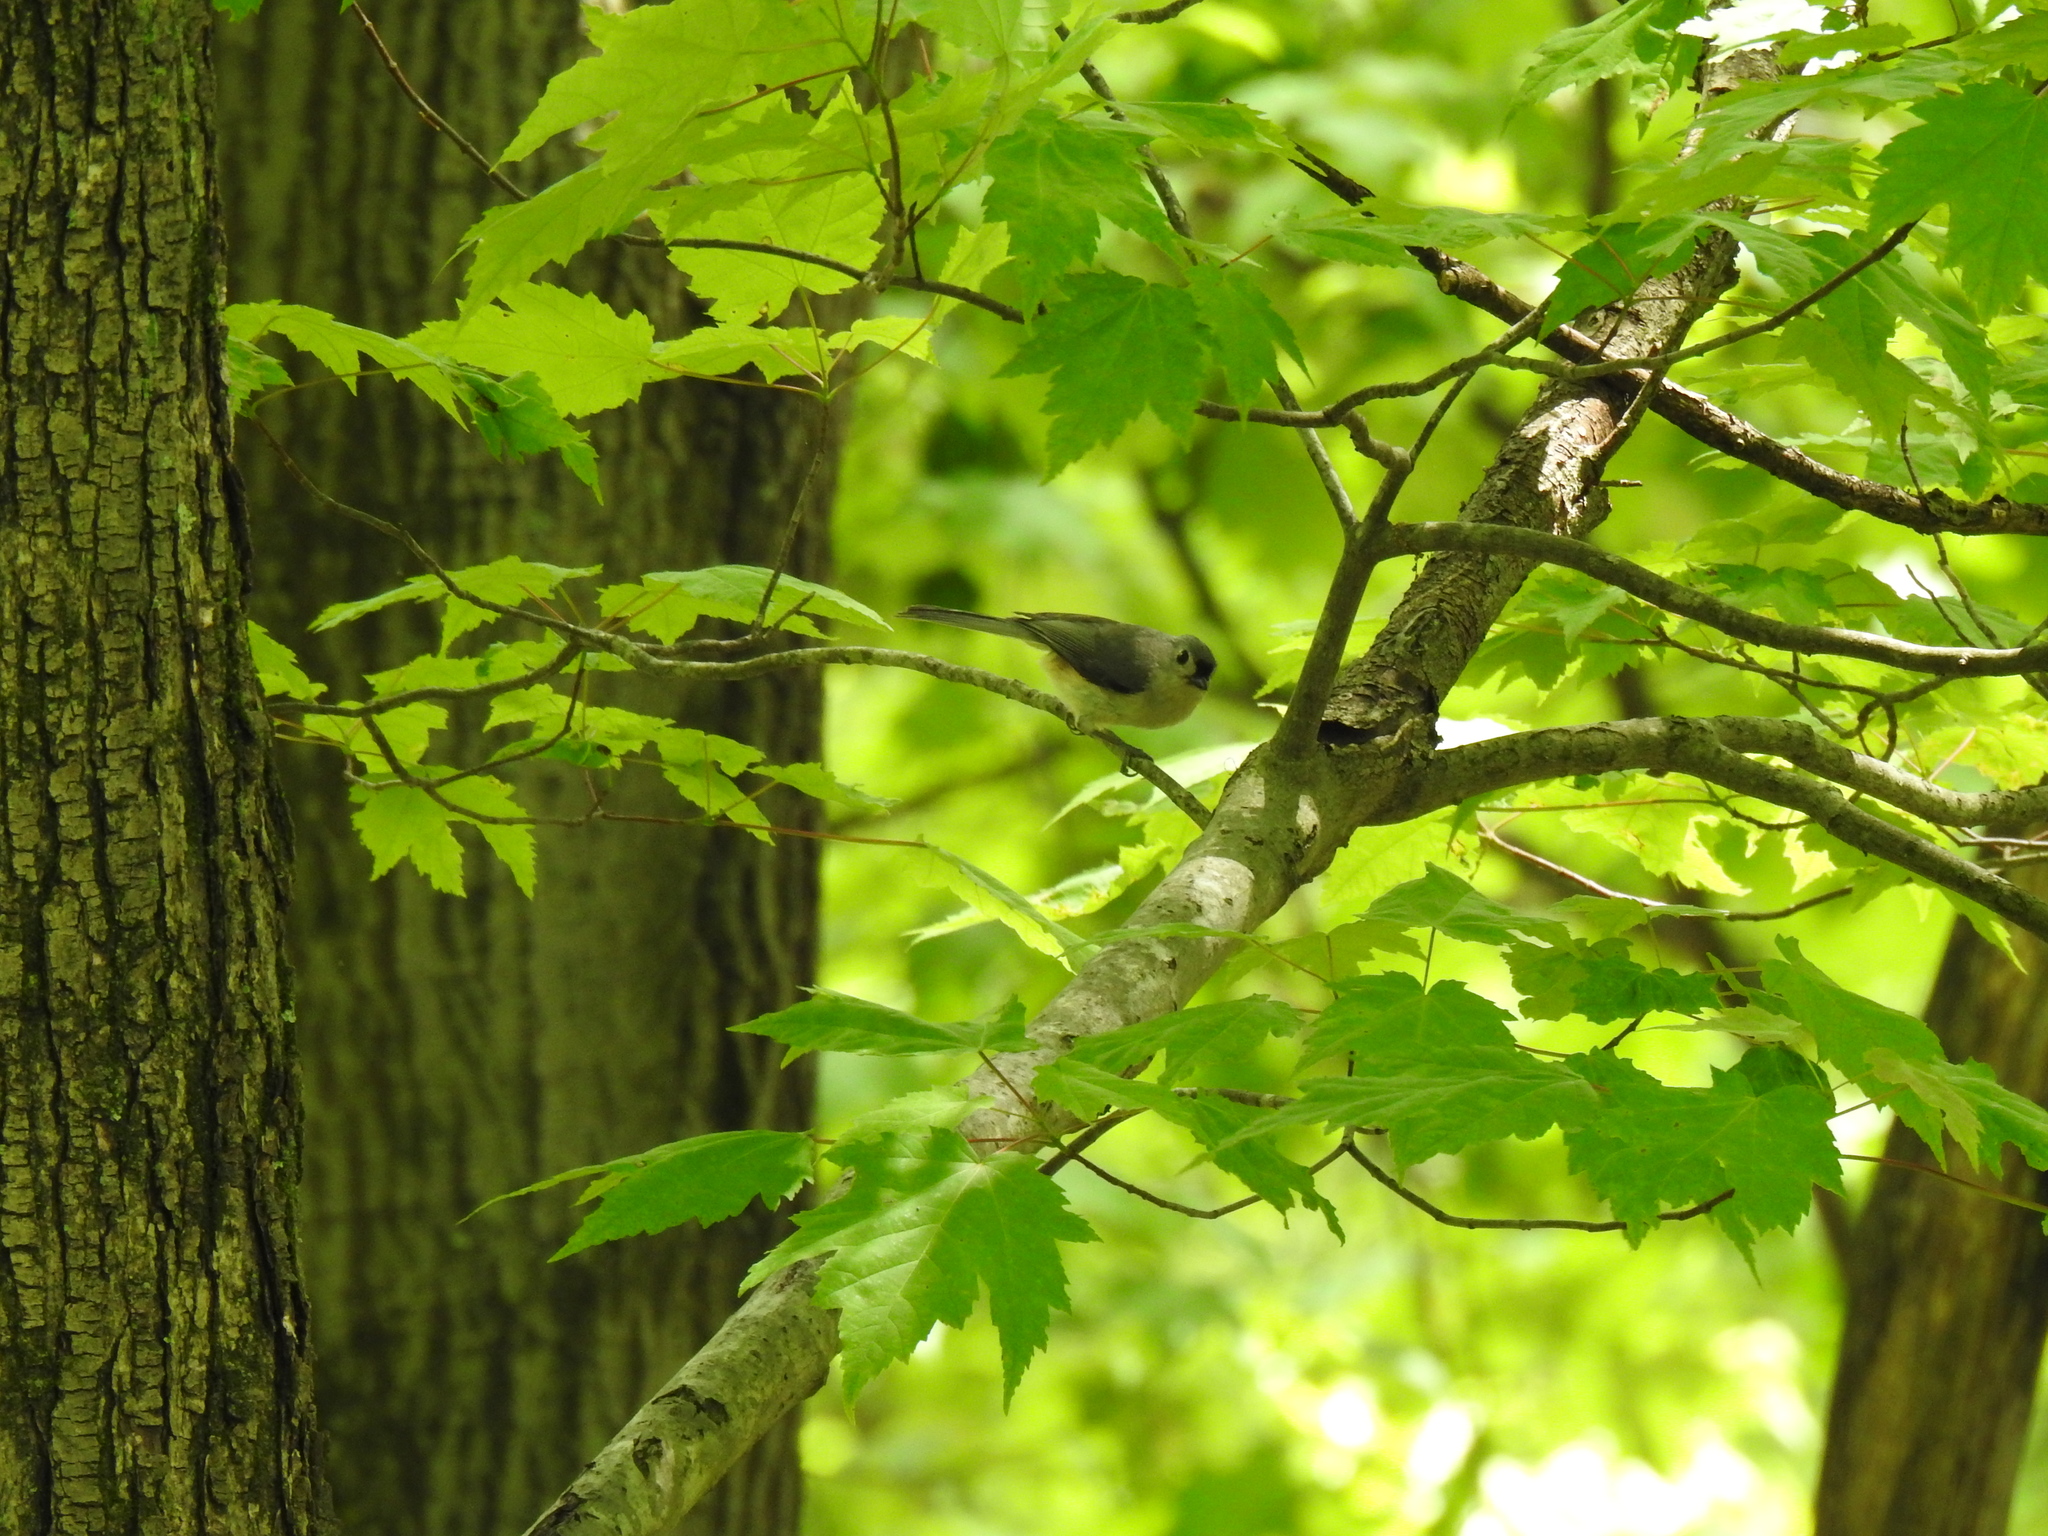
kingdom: Animalia
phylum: Chordata
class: Aves
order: Passeriformes
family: Paridae
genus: Baeolophus
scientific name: Baeolophus bicolor
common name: Tufted titmouse
